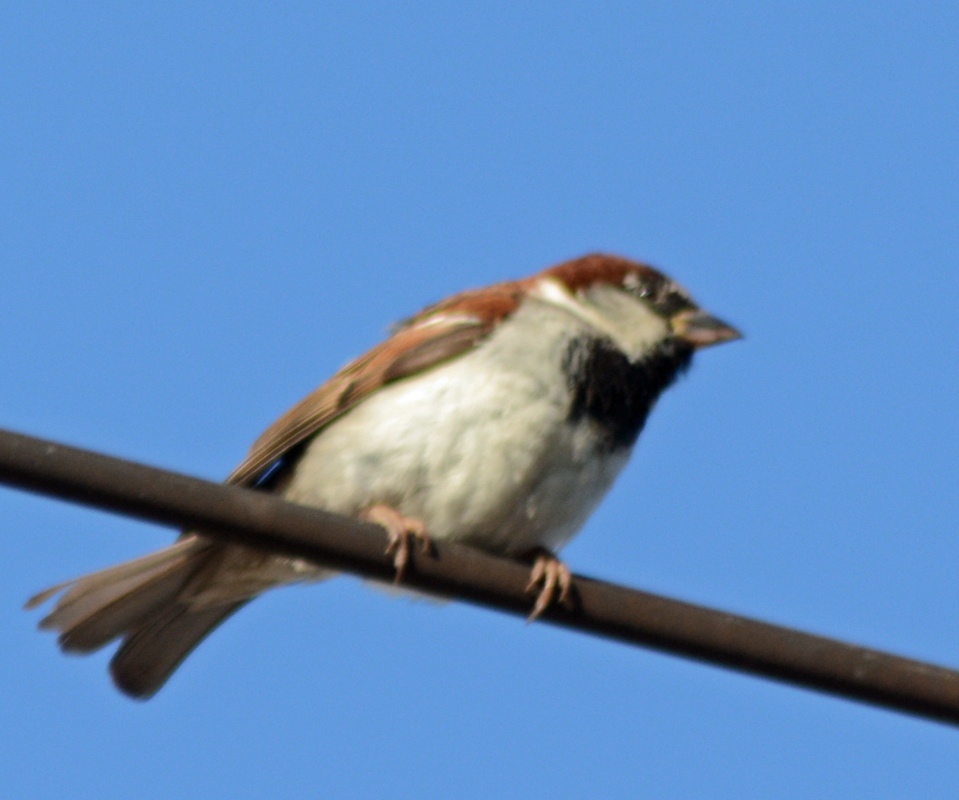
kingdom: Animalia
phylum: Chordata
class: Aves
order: Passeriformes
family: Passeridae
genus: Passer
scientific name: Passer domesticus
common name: House sparrow
